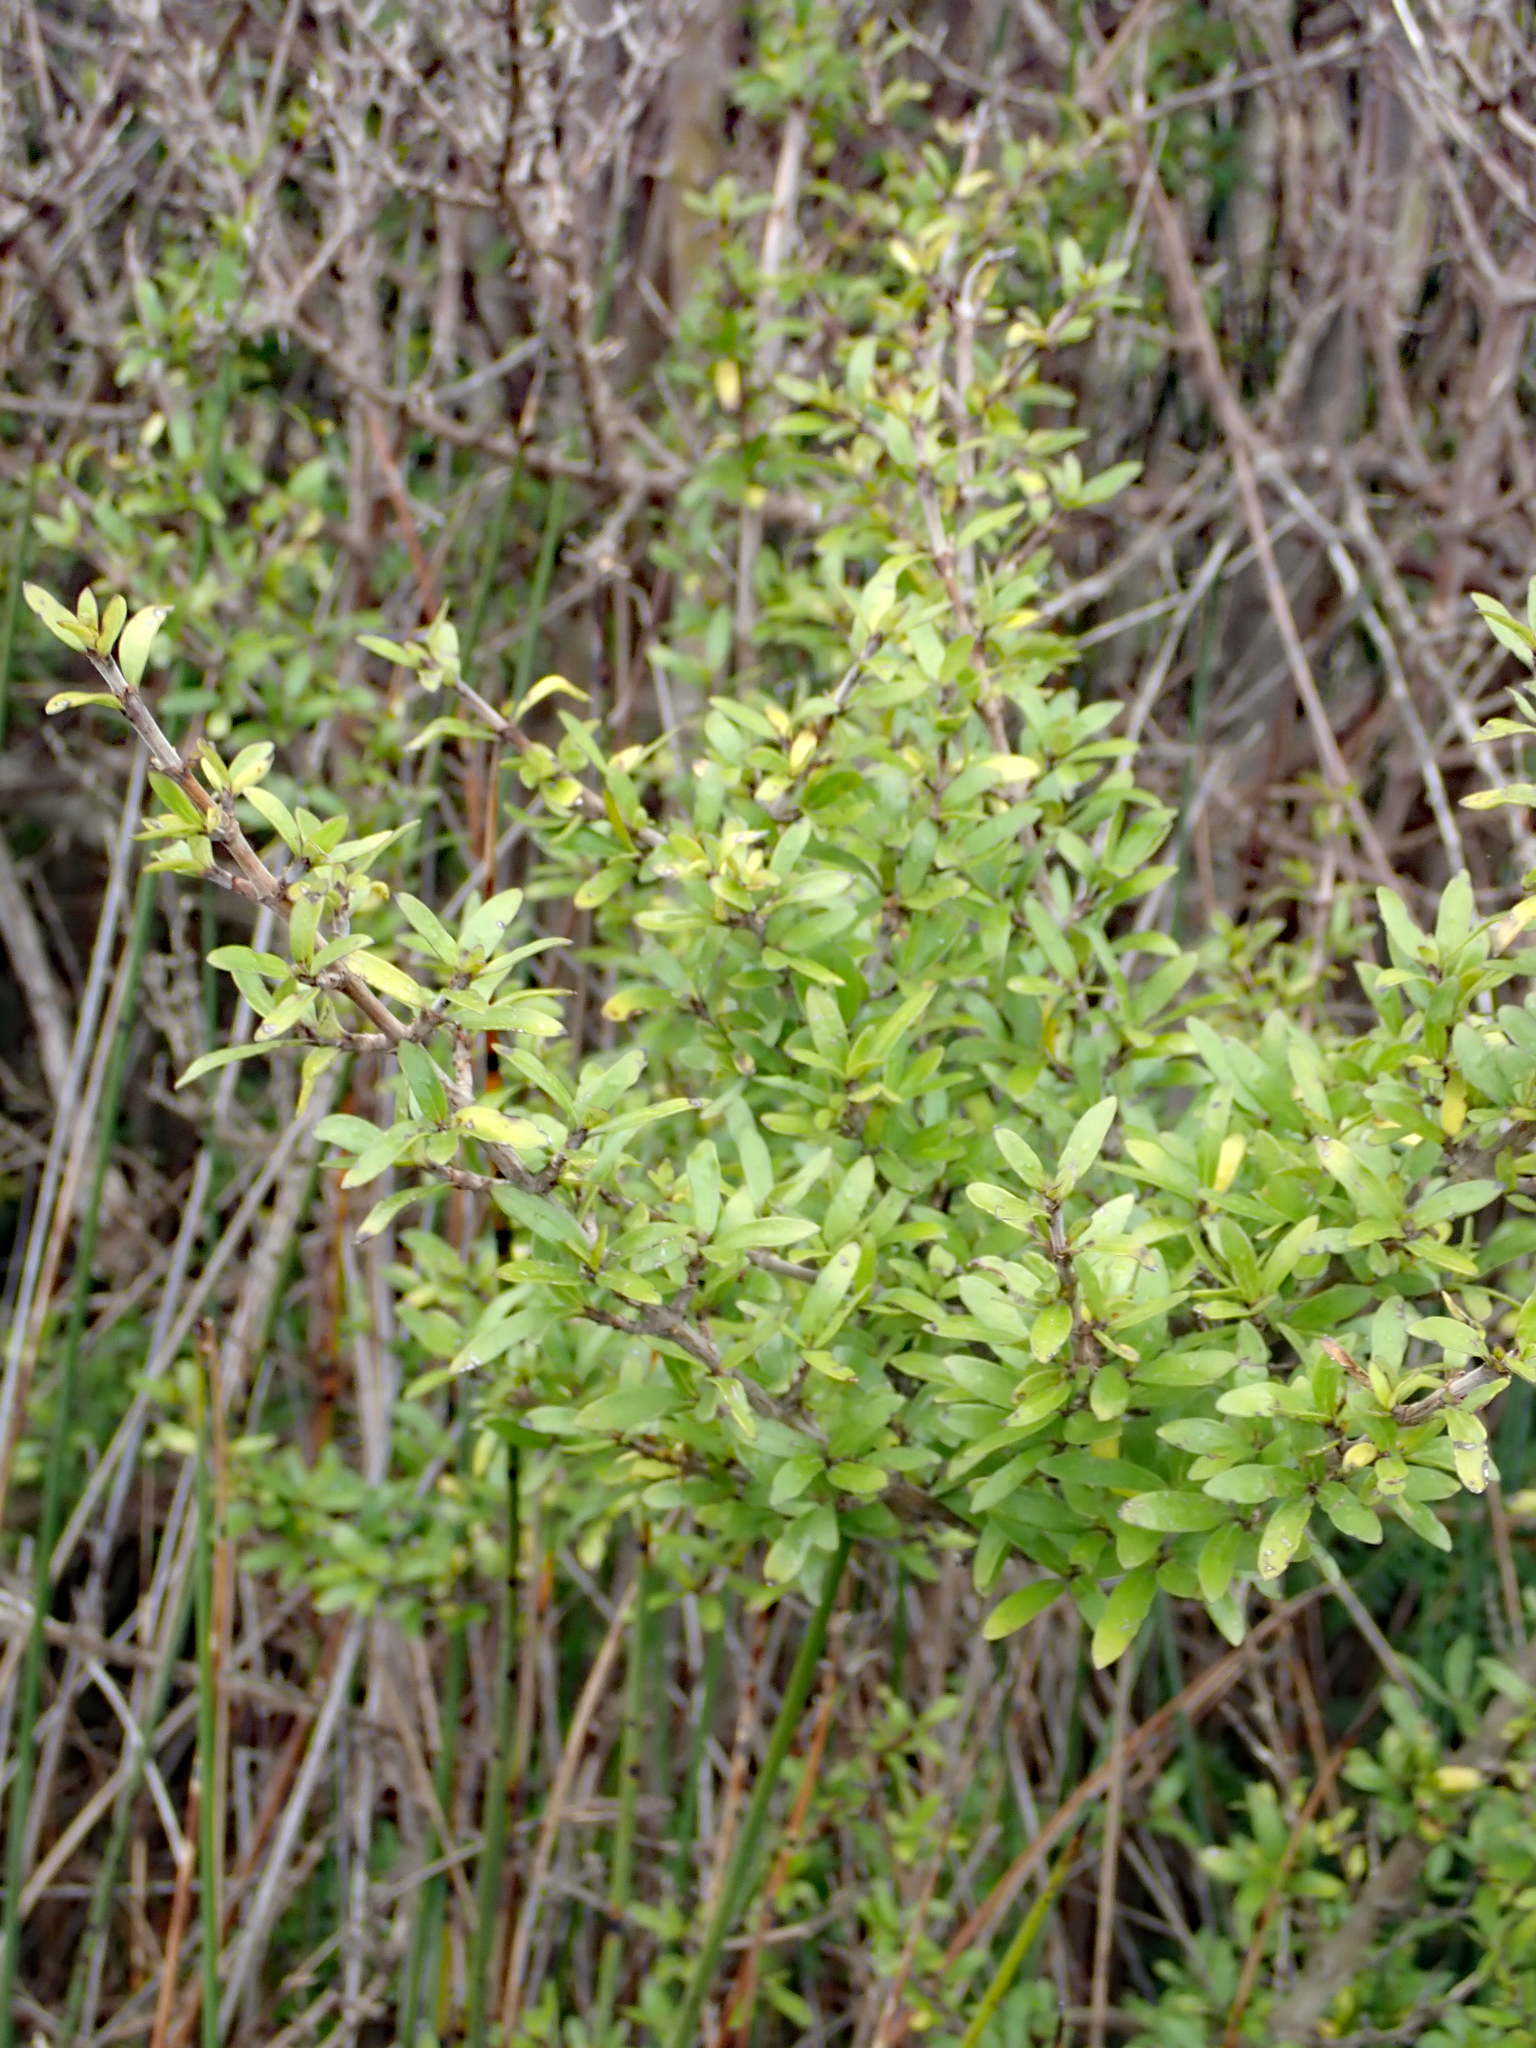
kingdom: Plantae
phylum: Tracheophyta
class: Magnoliopsida
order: Gentianales
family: Rubiaceae
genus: Coprosma
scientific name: Coprosma propinqua
